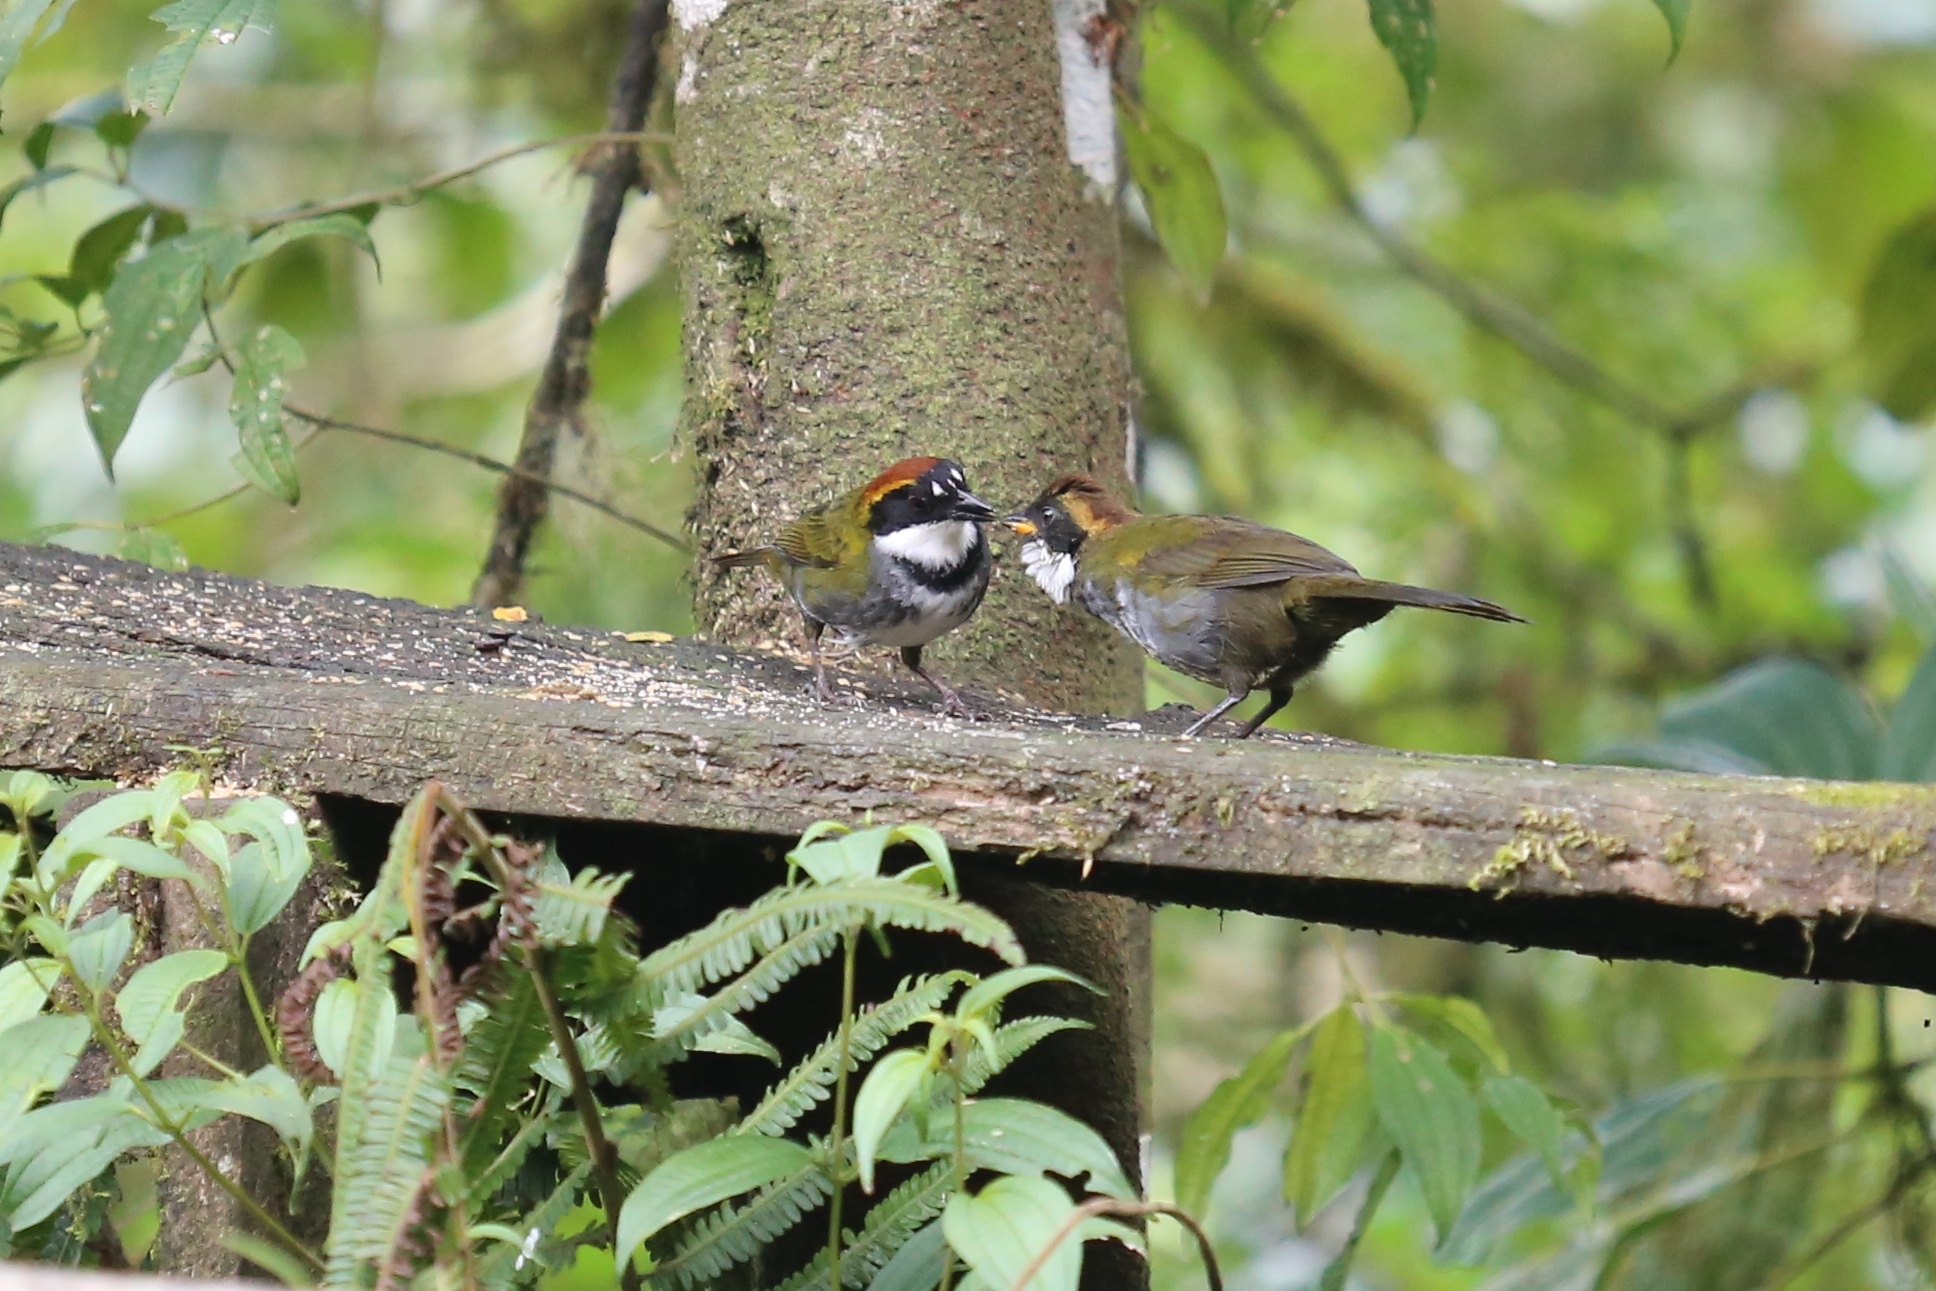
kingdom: Animalia
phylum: Chordata
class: Aves
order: Passeriformes
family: Passerellidae
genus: Arremon
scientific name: Arremon brunneinucha
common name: Chestnut-capped brushfinch
